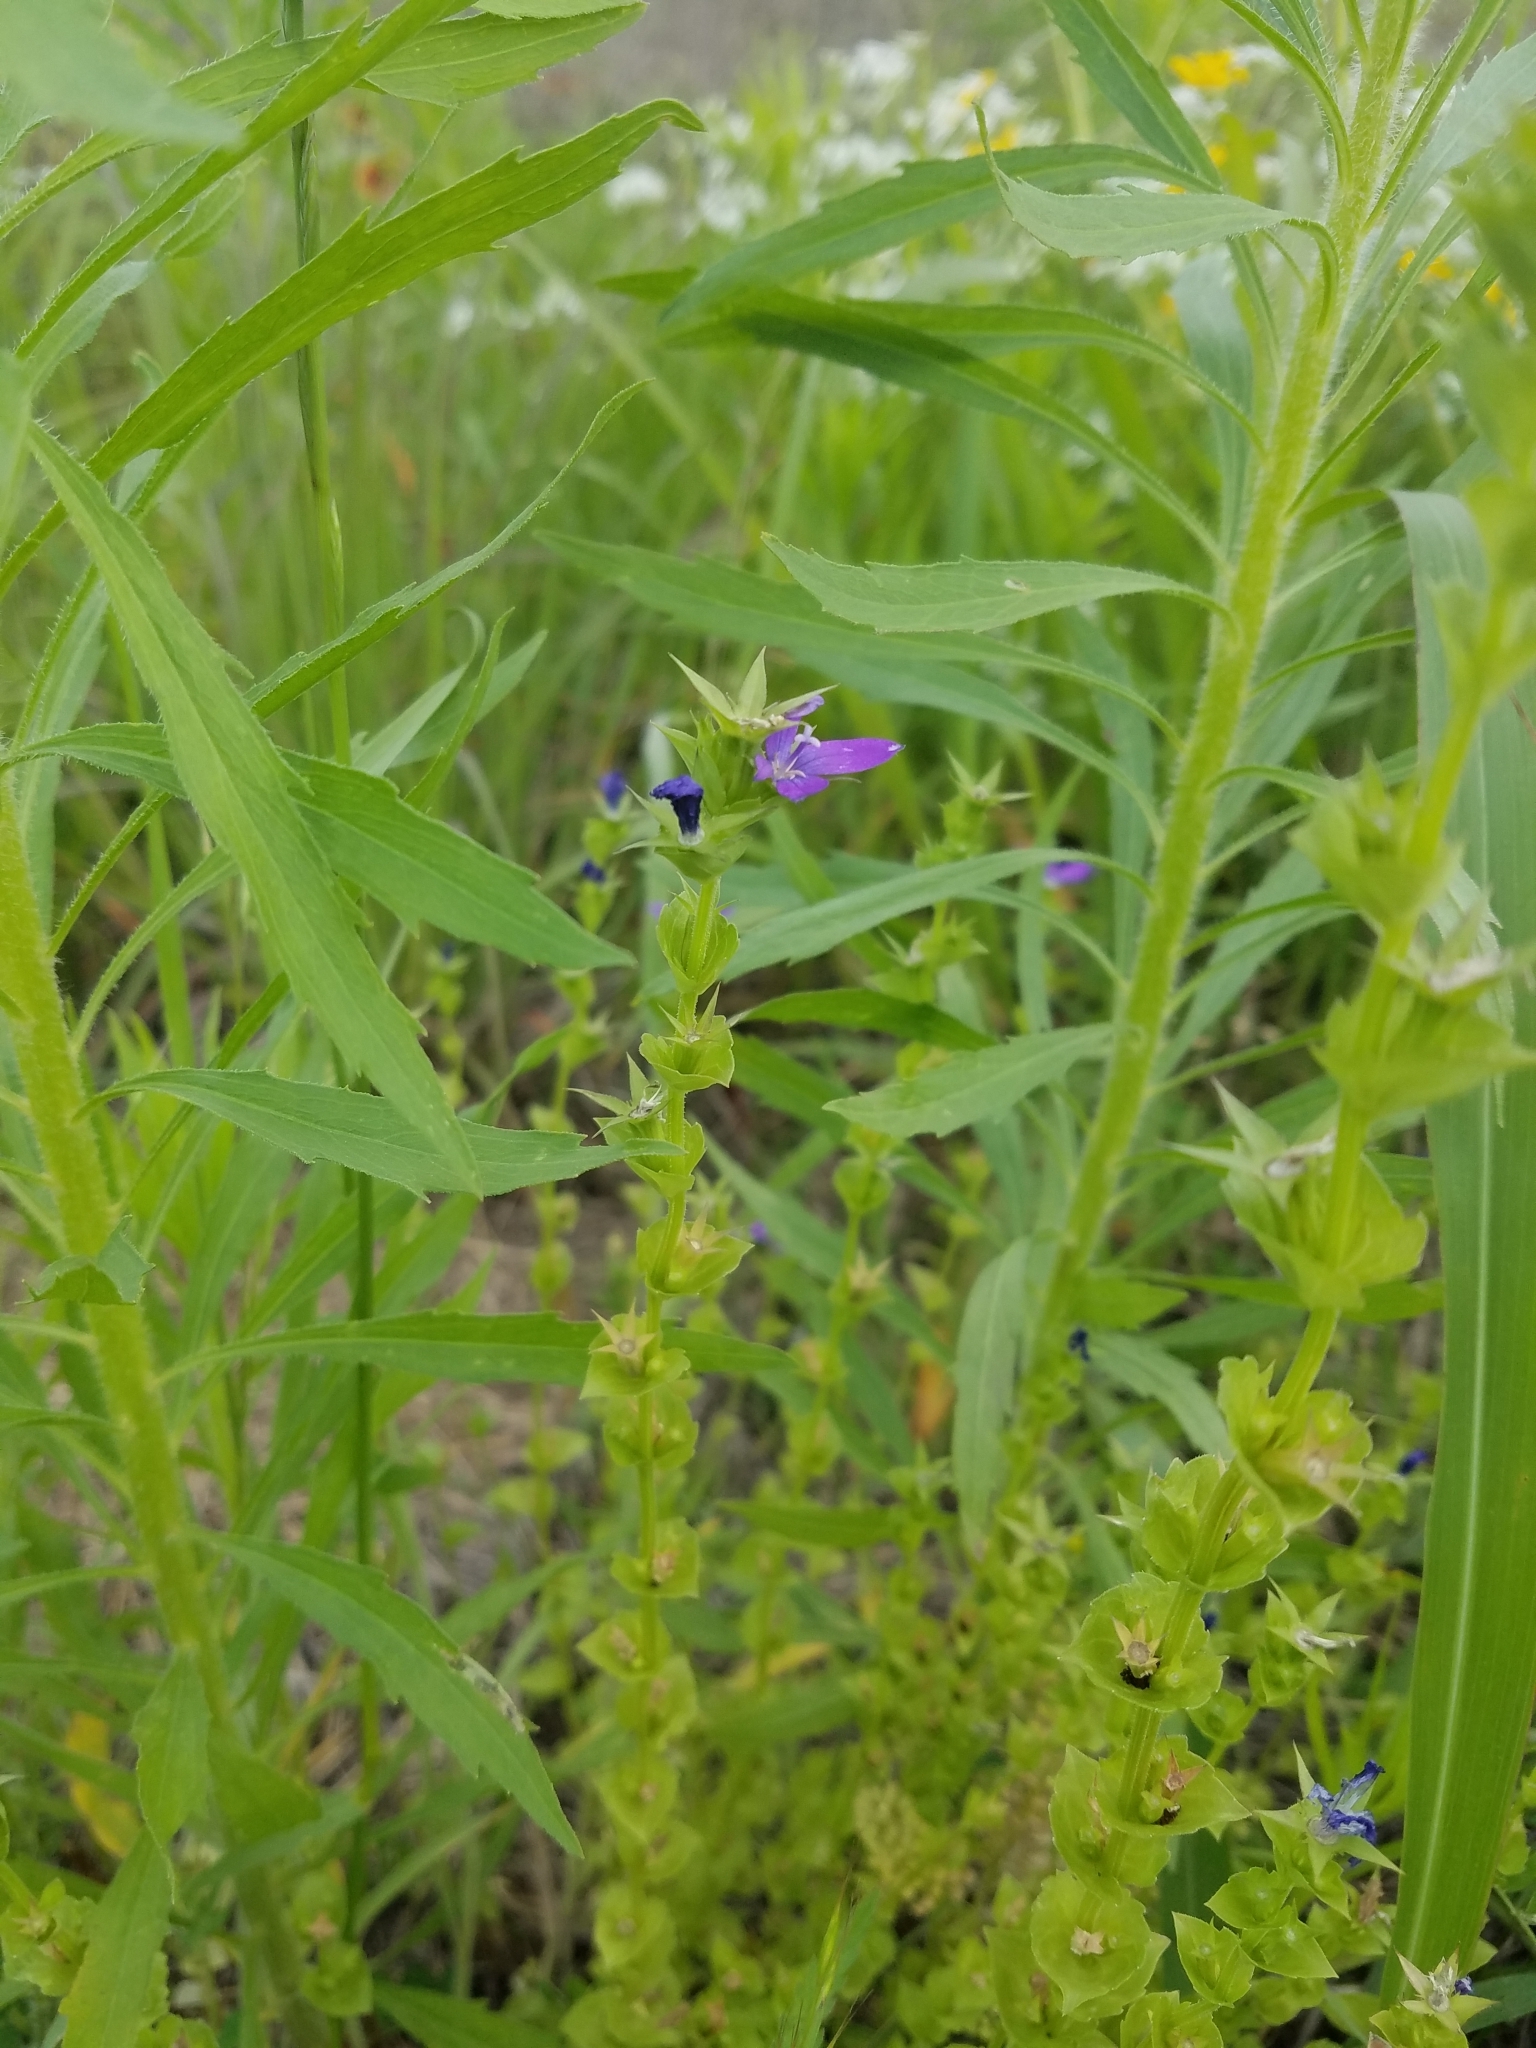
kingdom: Plantae
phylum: Tracheophyta
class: Magnoliopsida
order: Asterales
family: Campanulaceae
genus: Triodanis
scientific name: Triodanis perfoliata
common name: Clasping venus' looking-glass
